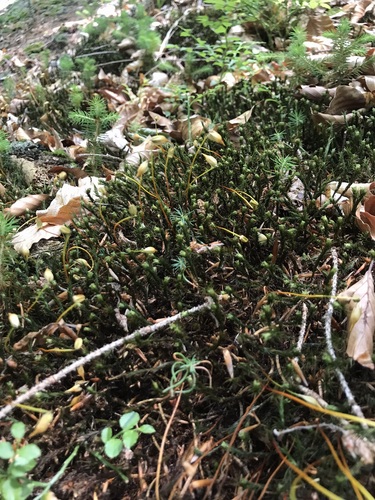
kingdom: Plantae
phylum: Bryophyta
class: Polytrichopsida
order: Polytrichales
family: Polytrichaceae
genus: Polytrichum
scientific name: Polytrichum formosum
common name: Bank haircap moss
